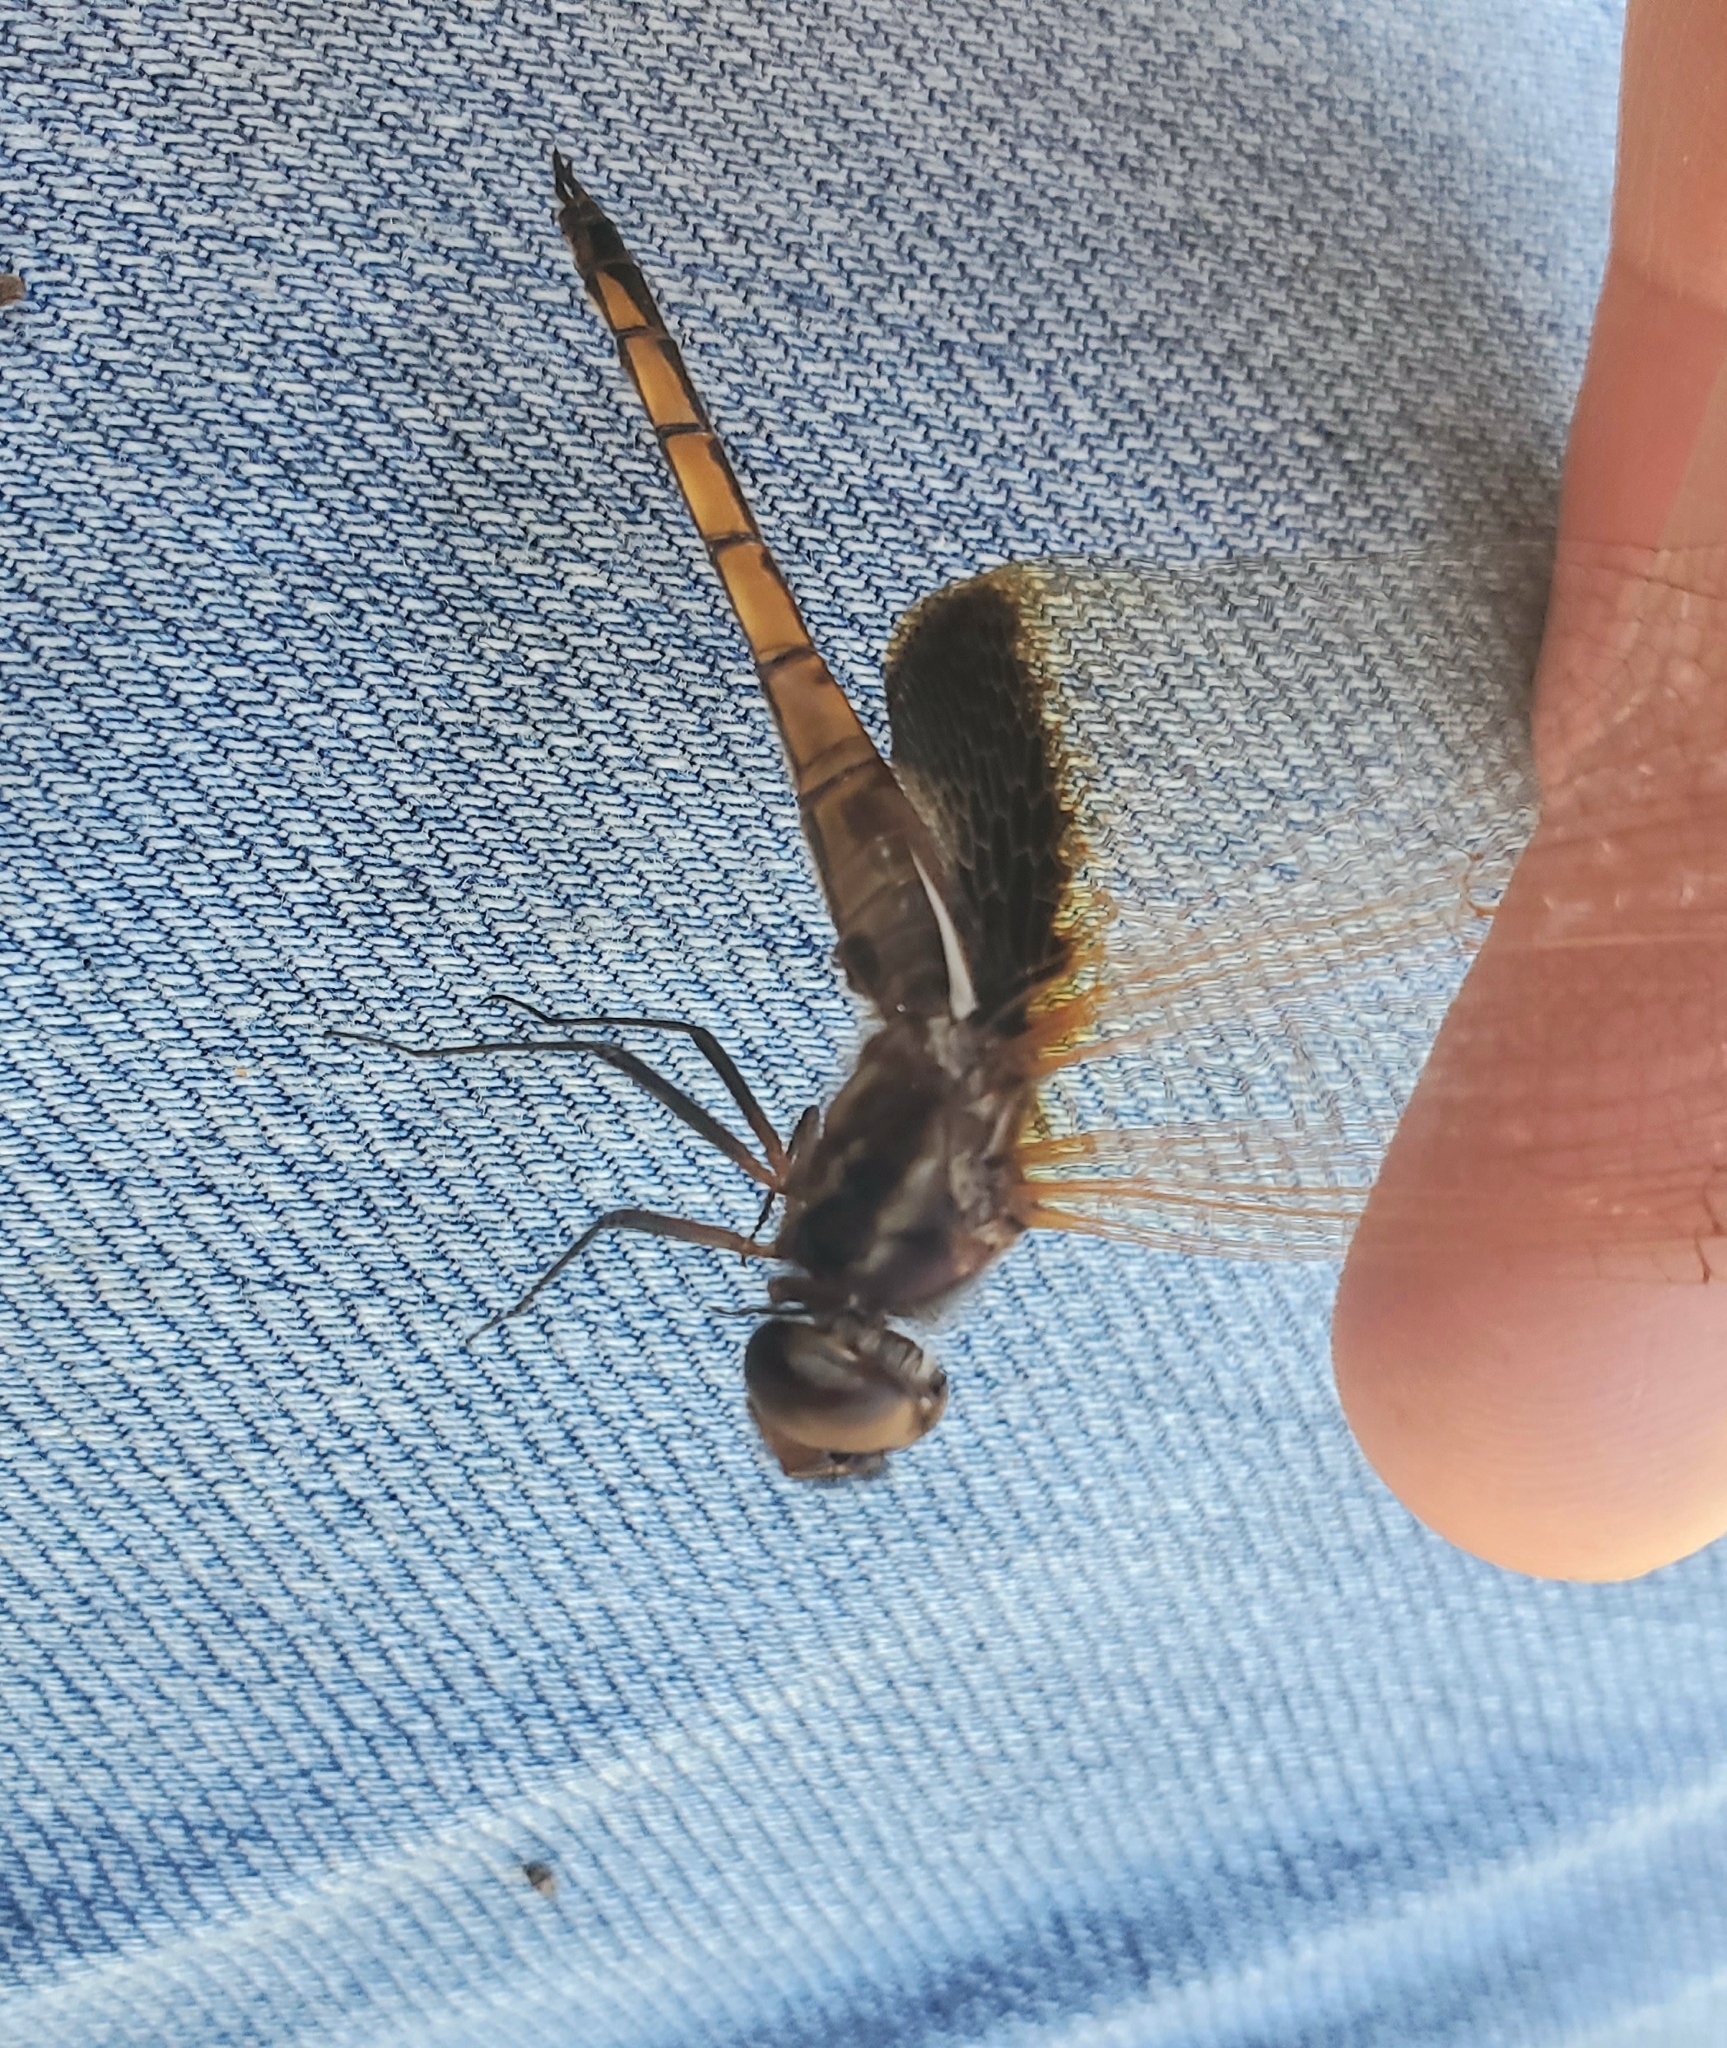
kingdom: Animalia
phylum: Arthropoda
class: Insecta
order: Odonata
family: Libellulidae
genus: Miathyria
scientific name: Miathyria marcella
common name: Hyacinth glider
